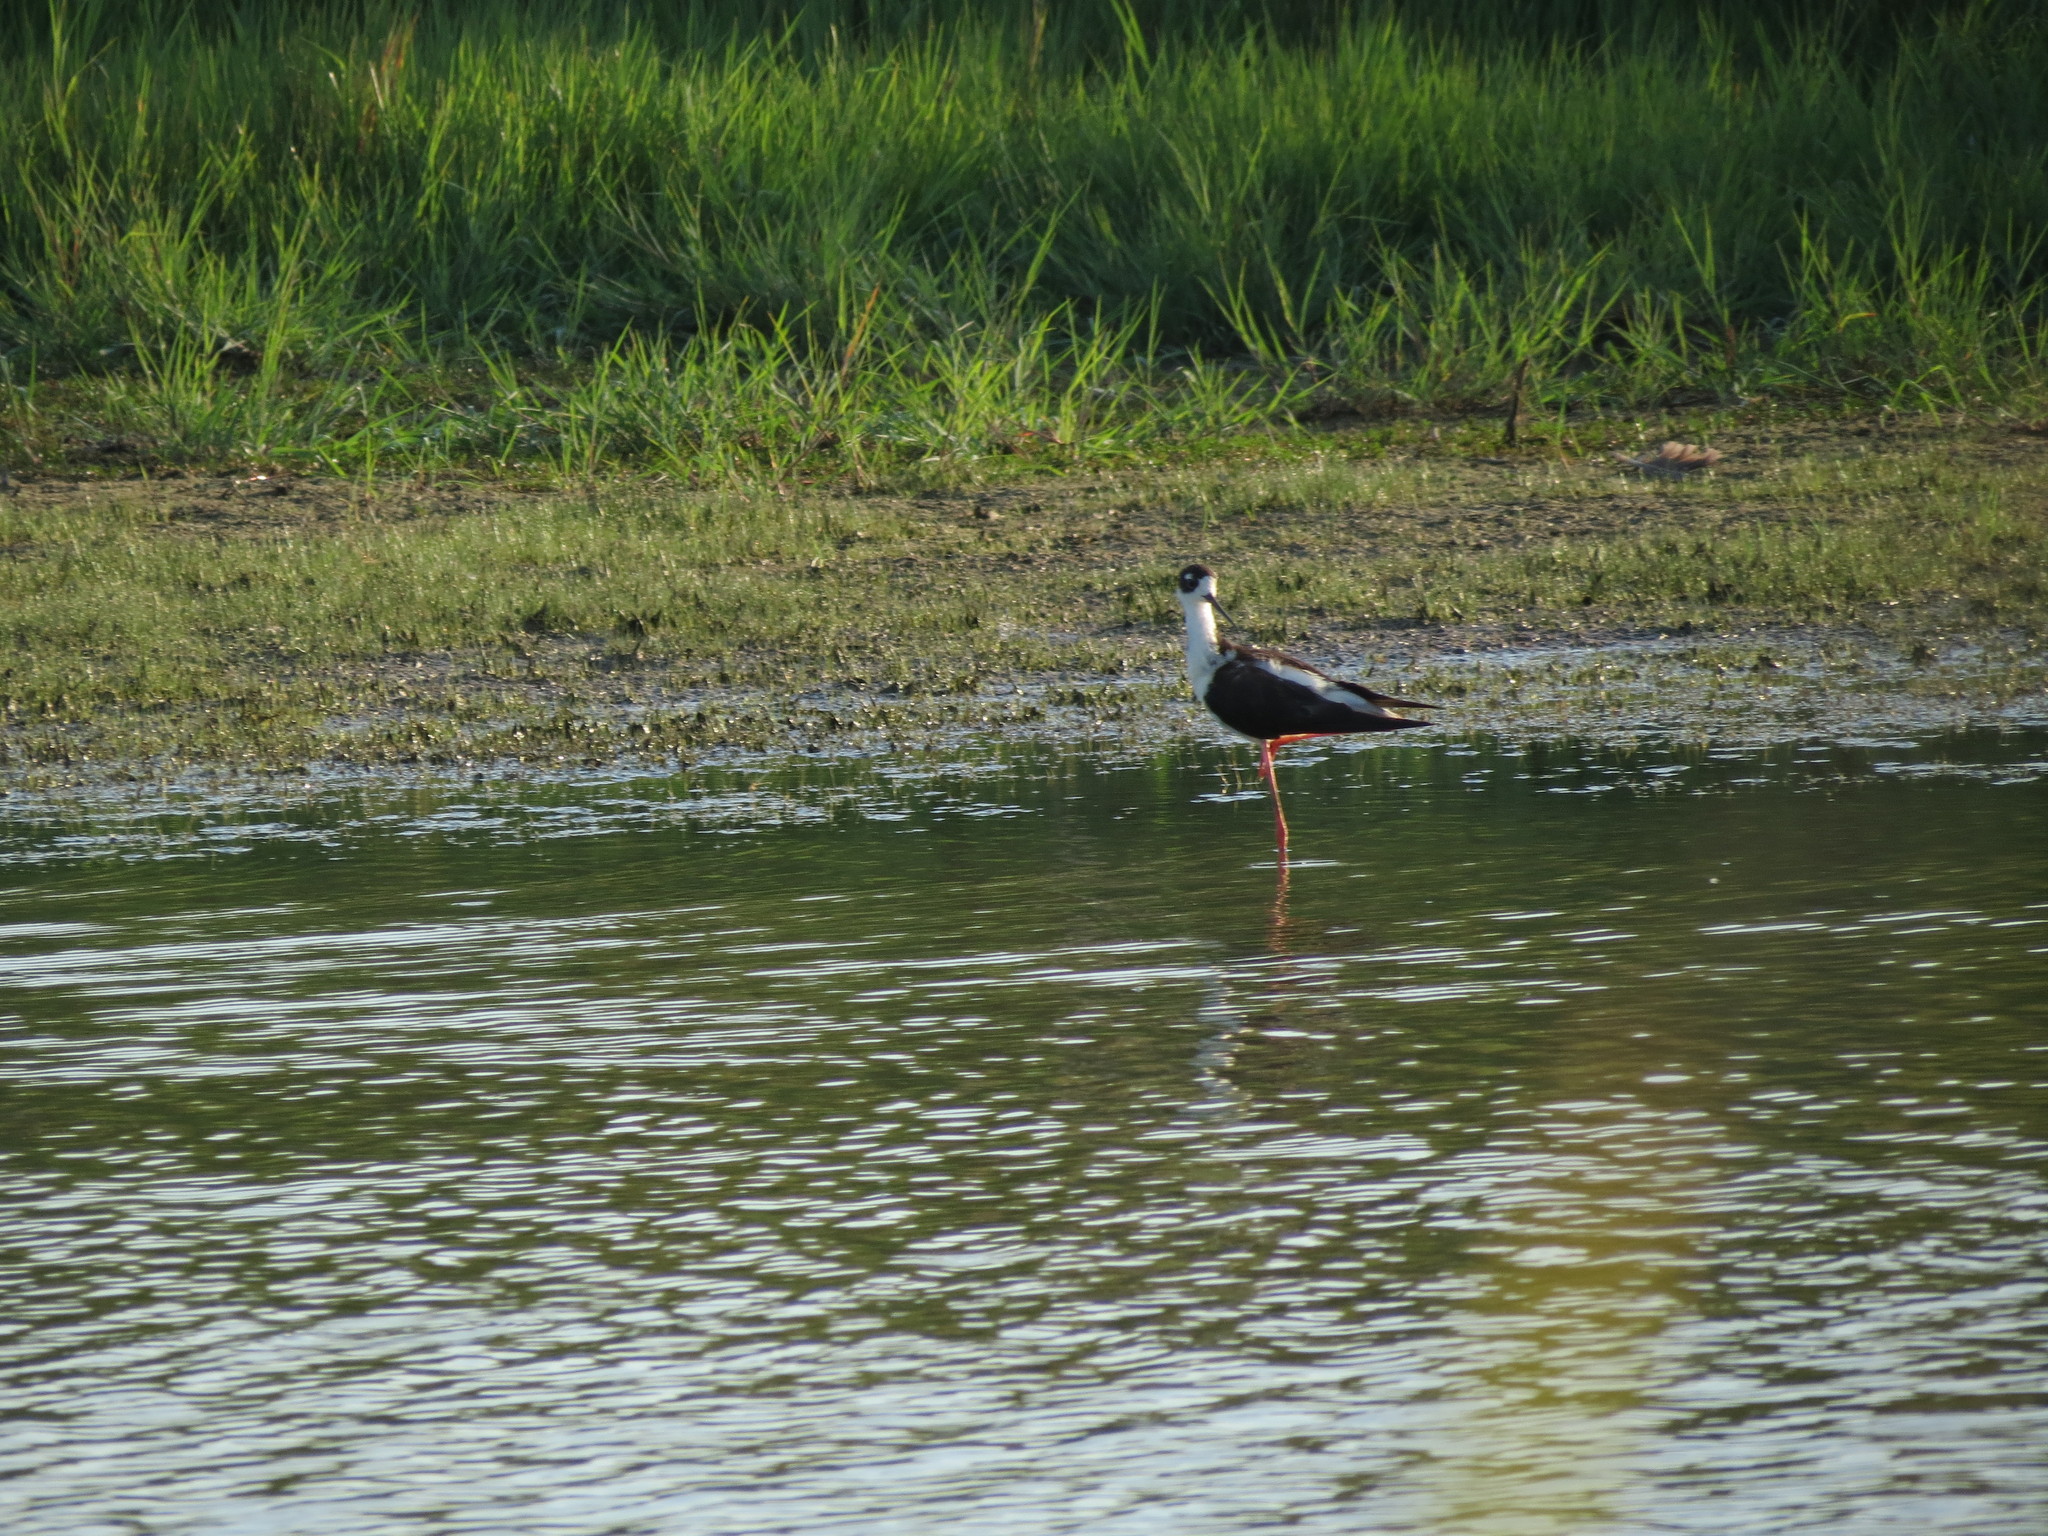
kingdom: Animalia
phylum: Chordata
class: Aves
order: Charadriiformes
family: Recurvirostridae
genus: Himantopus
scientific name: Himantopus mexicanus
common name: Black-necked stilt
